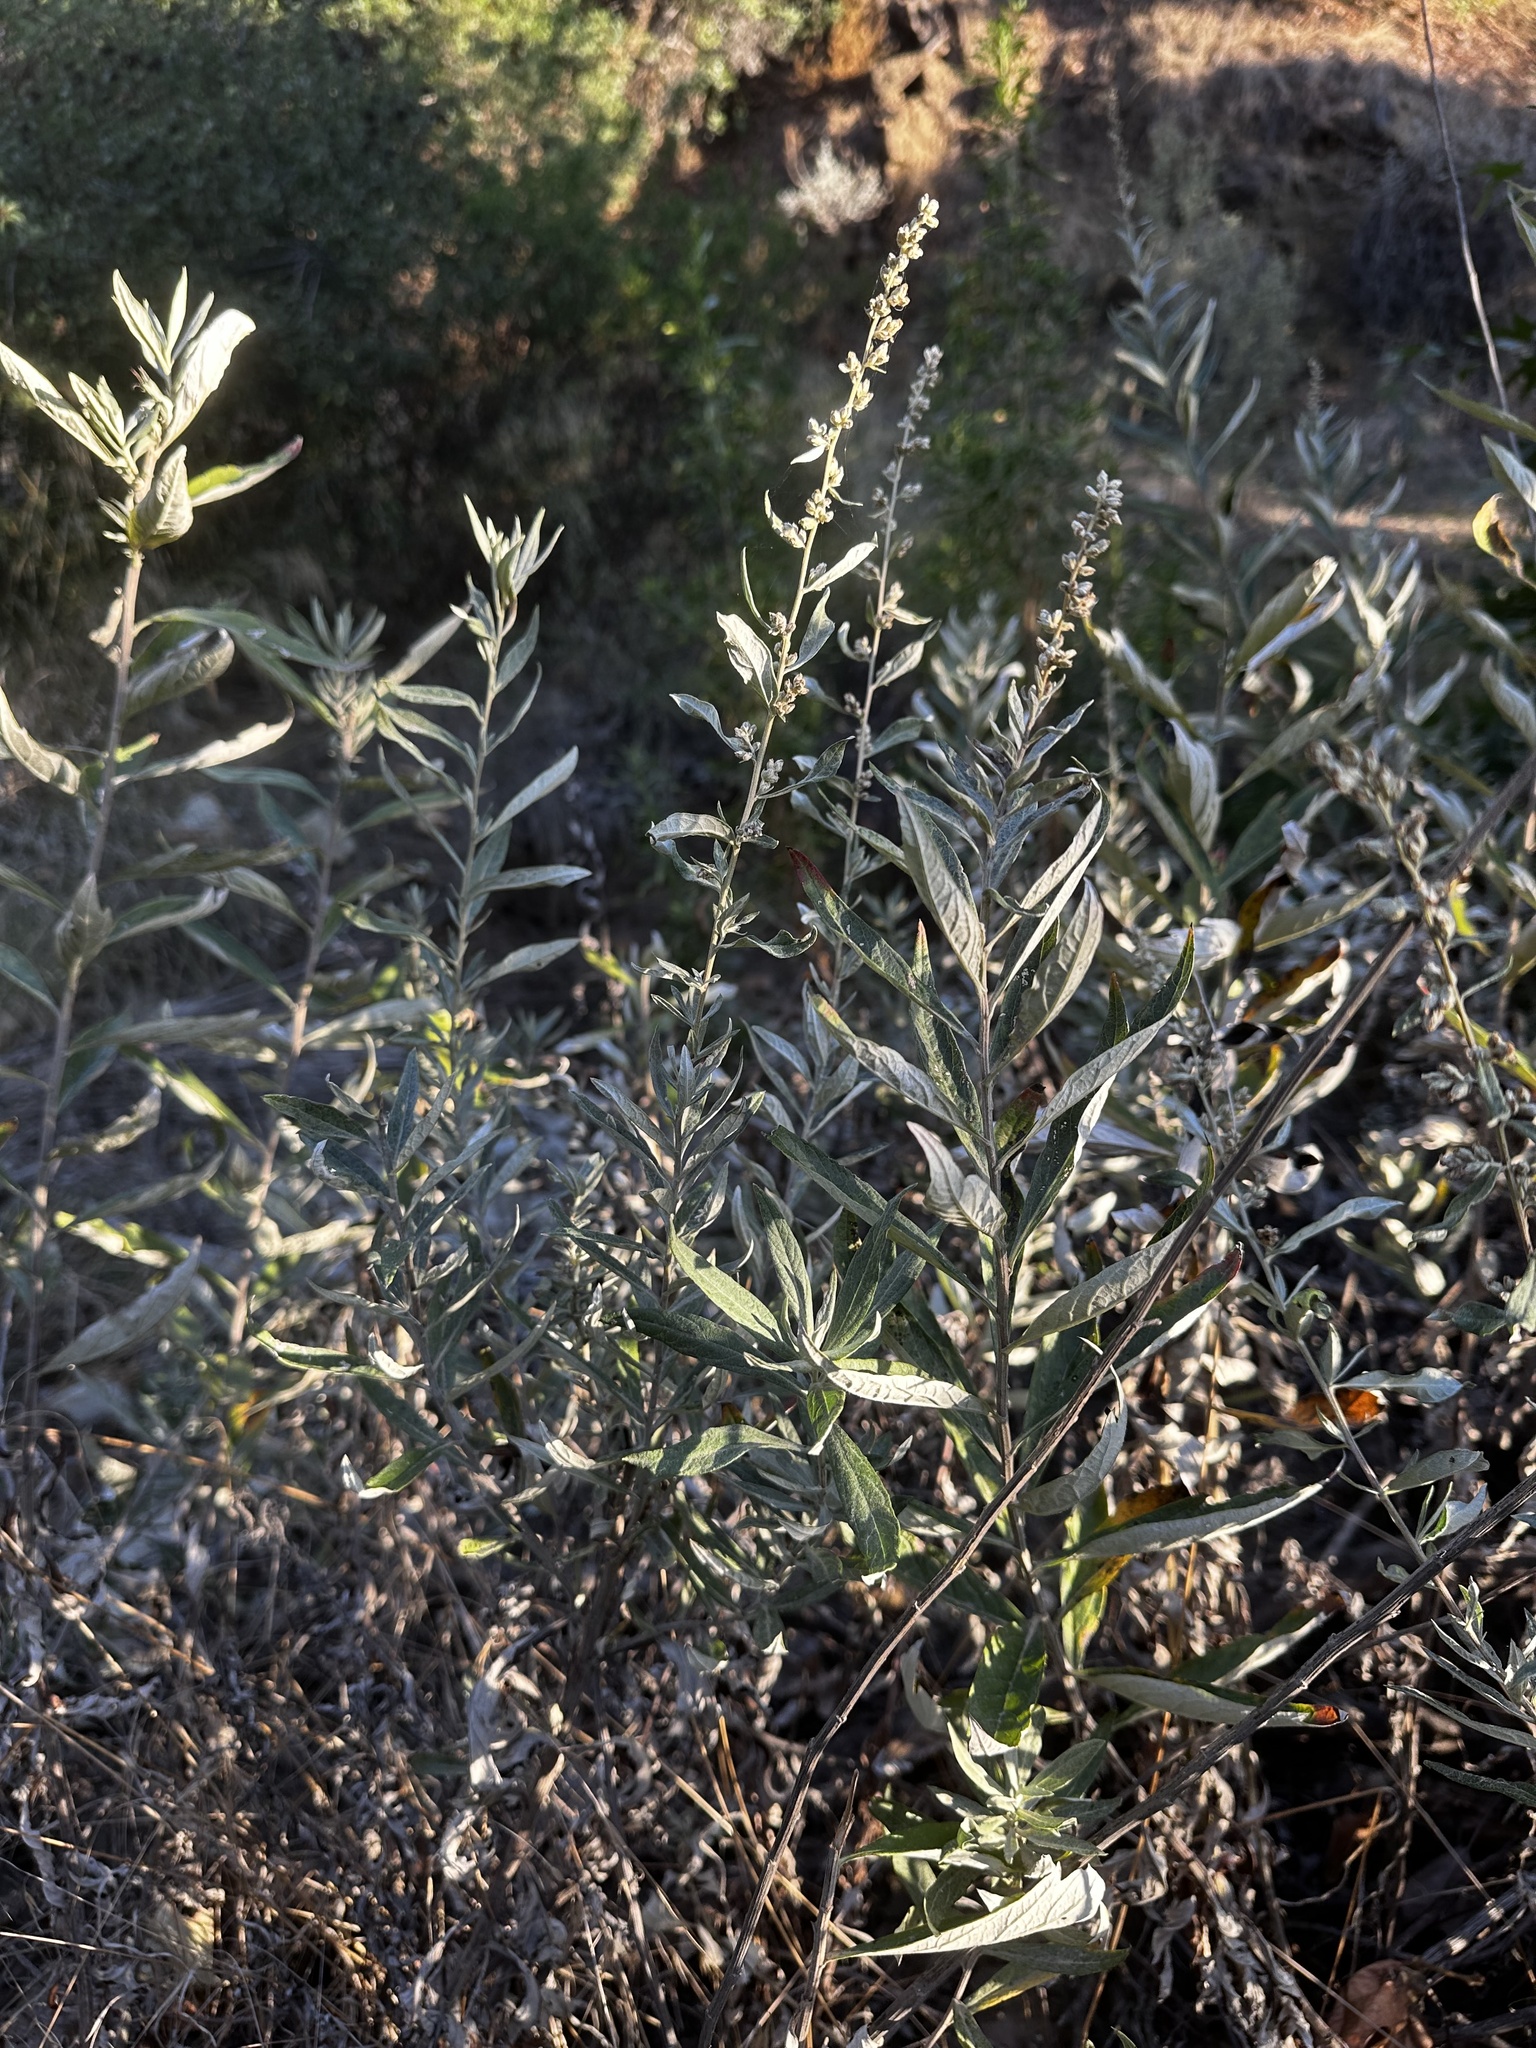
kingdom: Plantae
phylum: Tracheophyta
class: Magnoliopsida
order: Asterales
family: Asteraceae
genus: Artemisia
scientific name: Artemisia douglasiana
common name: Northwest mugwort
